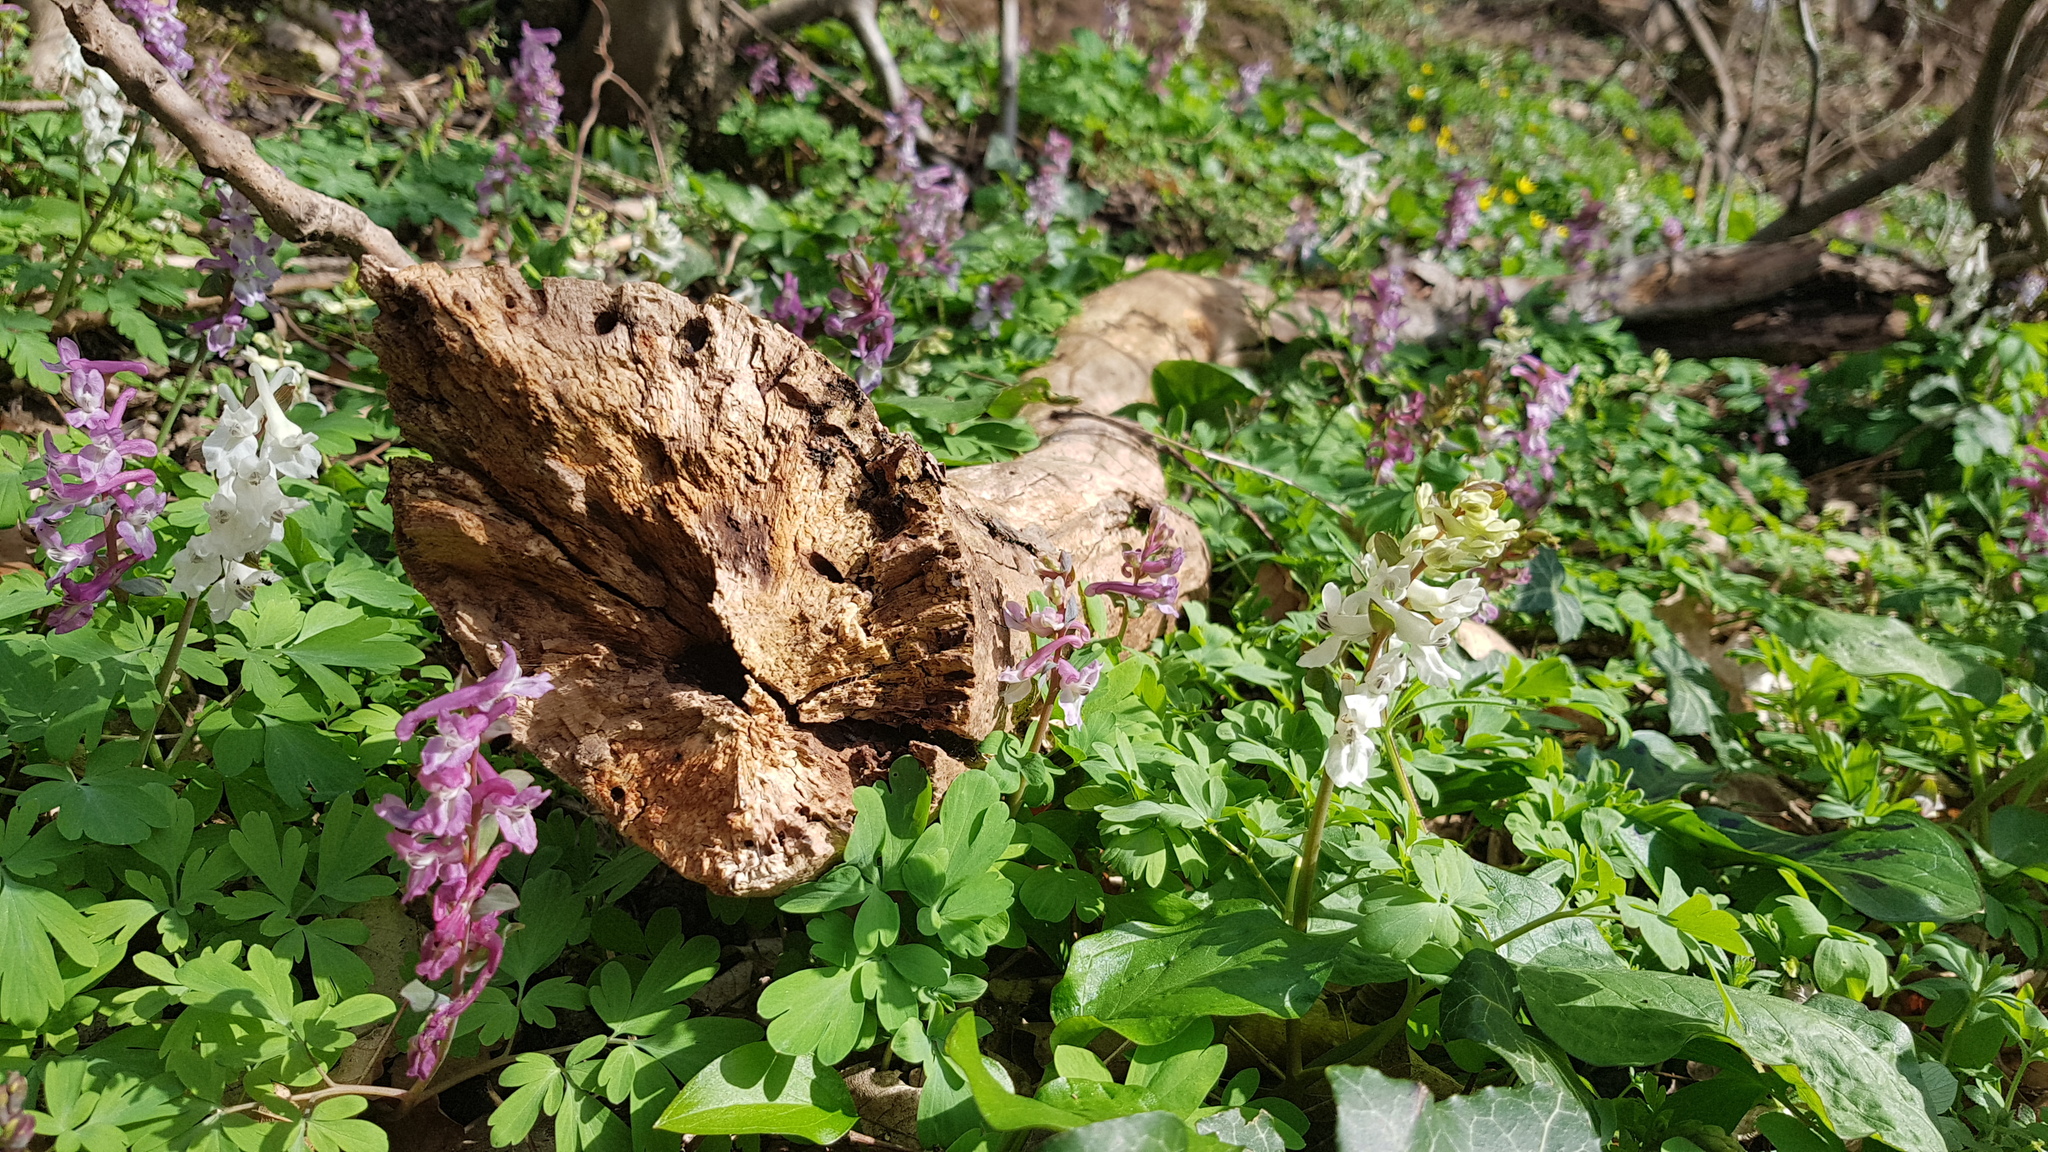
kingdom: Plantae
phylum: Tracheophyta
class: Magnoliopsida
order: Ranunculales
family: Papaveraceae
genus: Corydalis
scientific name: Corydalis cava
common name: Hollowroot
